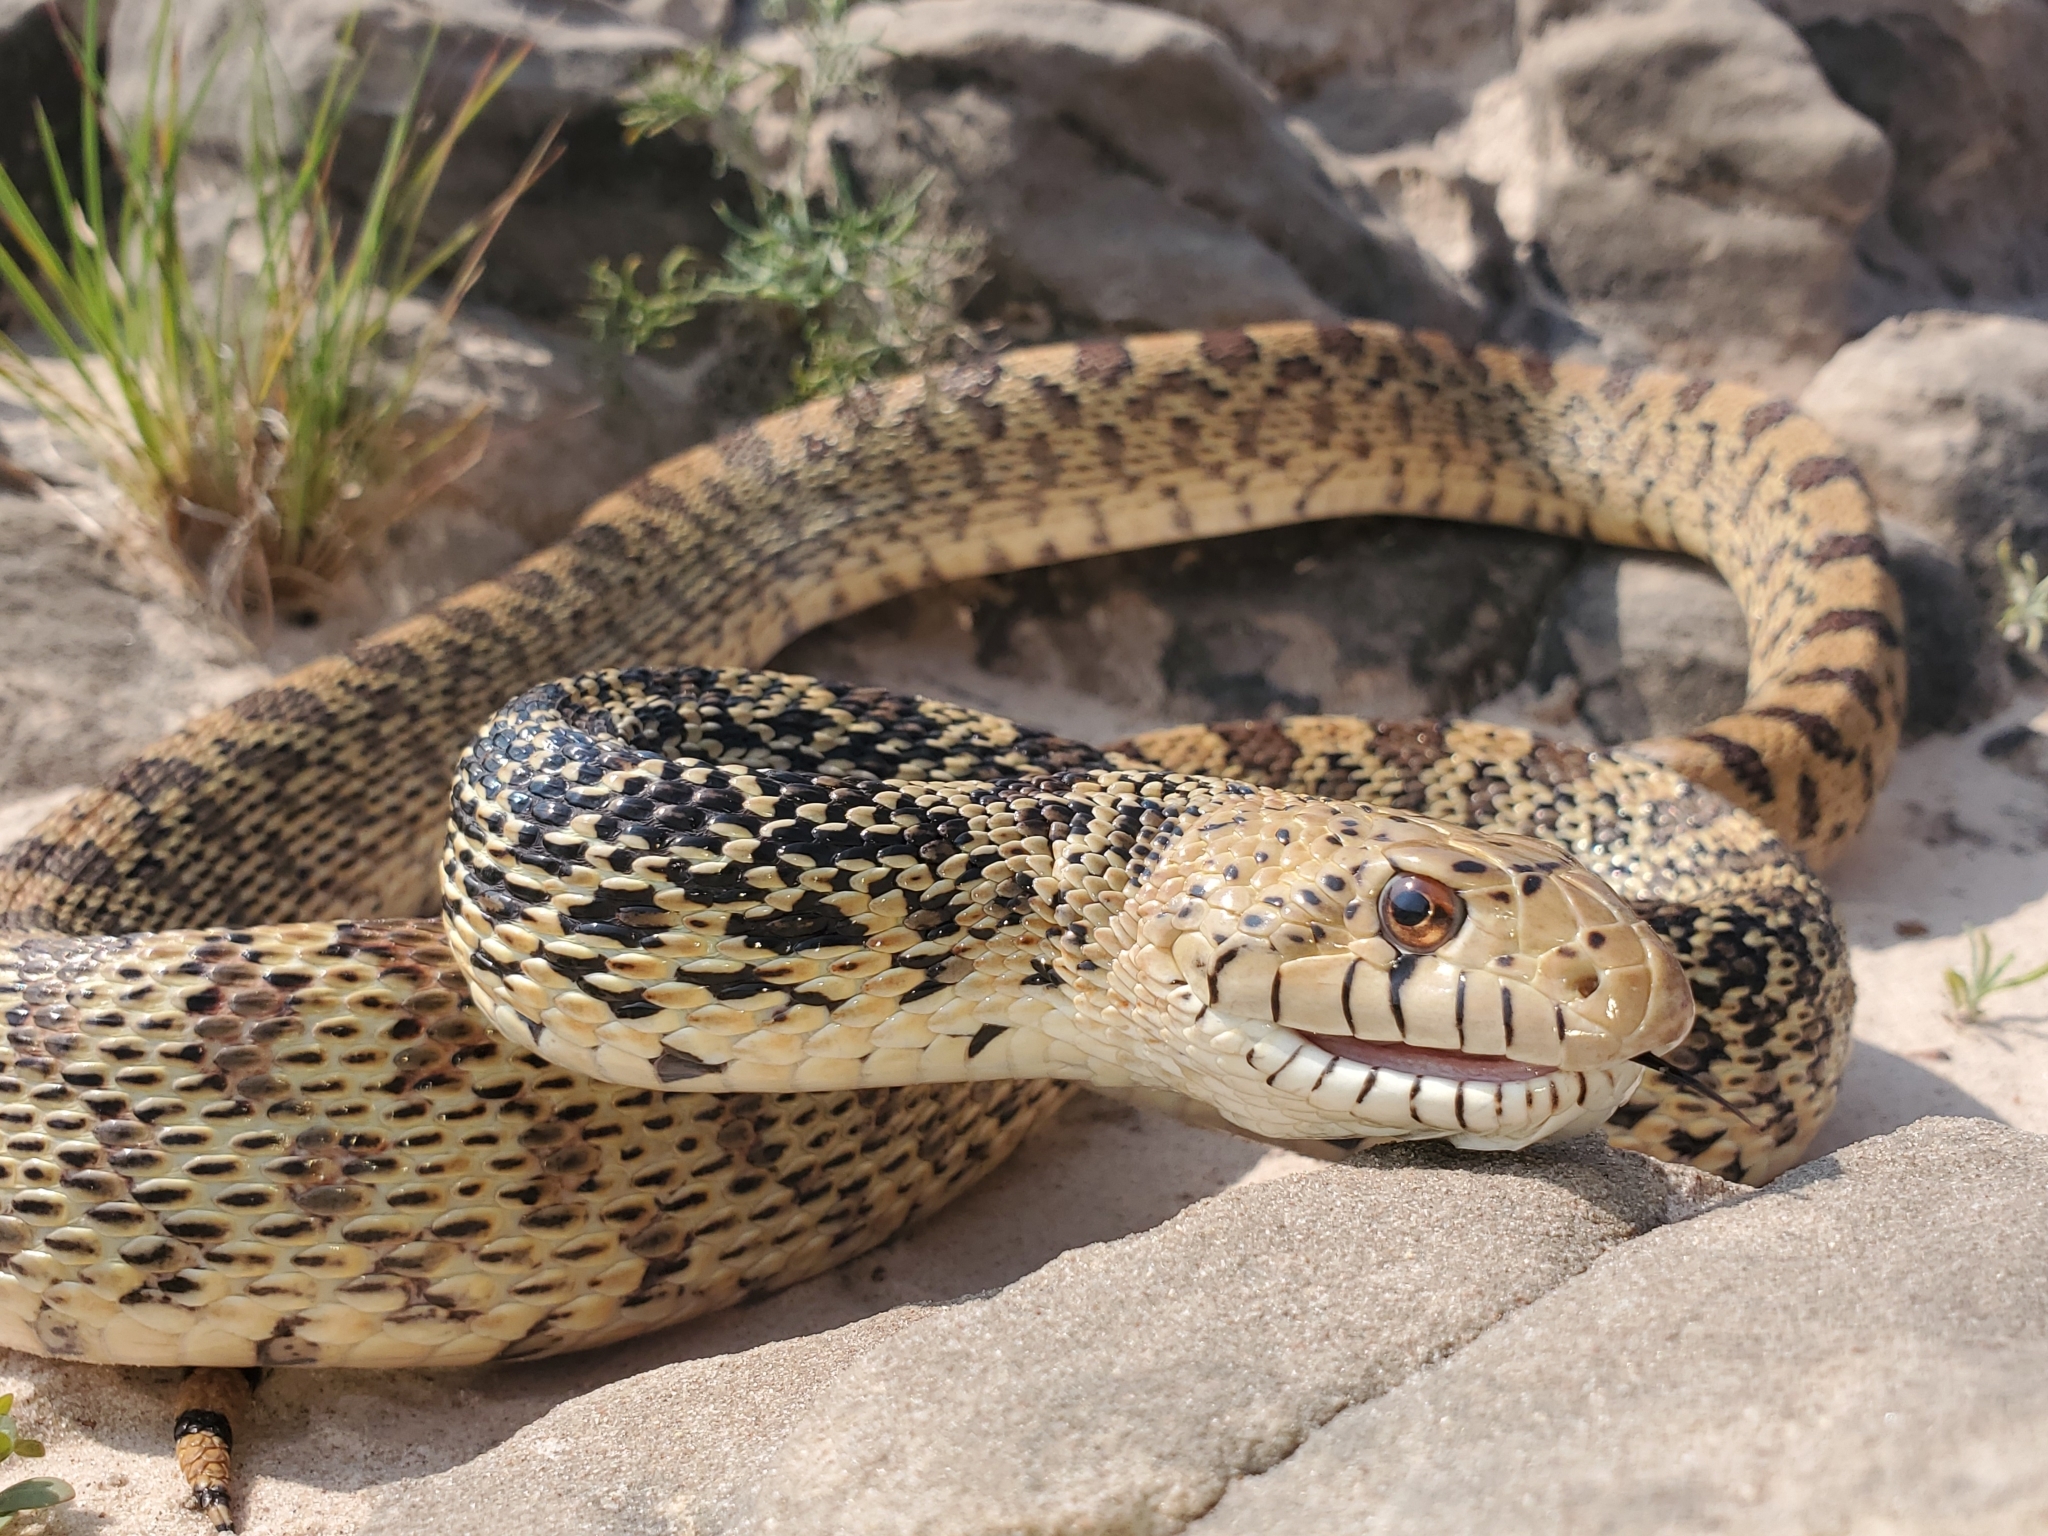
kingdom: Animalia
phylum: Chordata
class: Squamata
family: Colubridae
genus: Pituophis
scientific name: Pituophis catenifer
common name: Gopher snake
